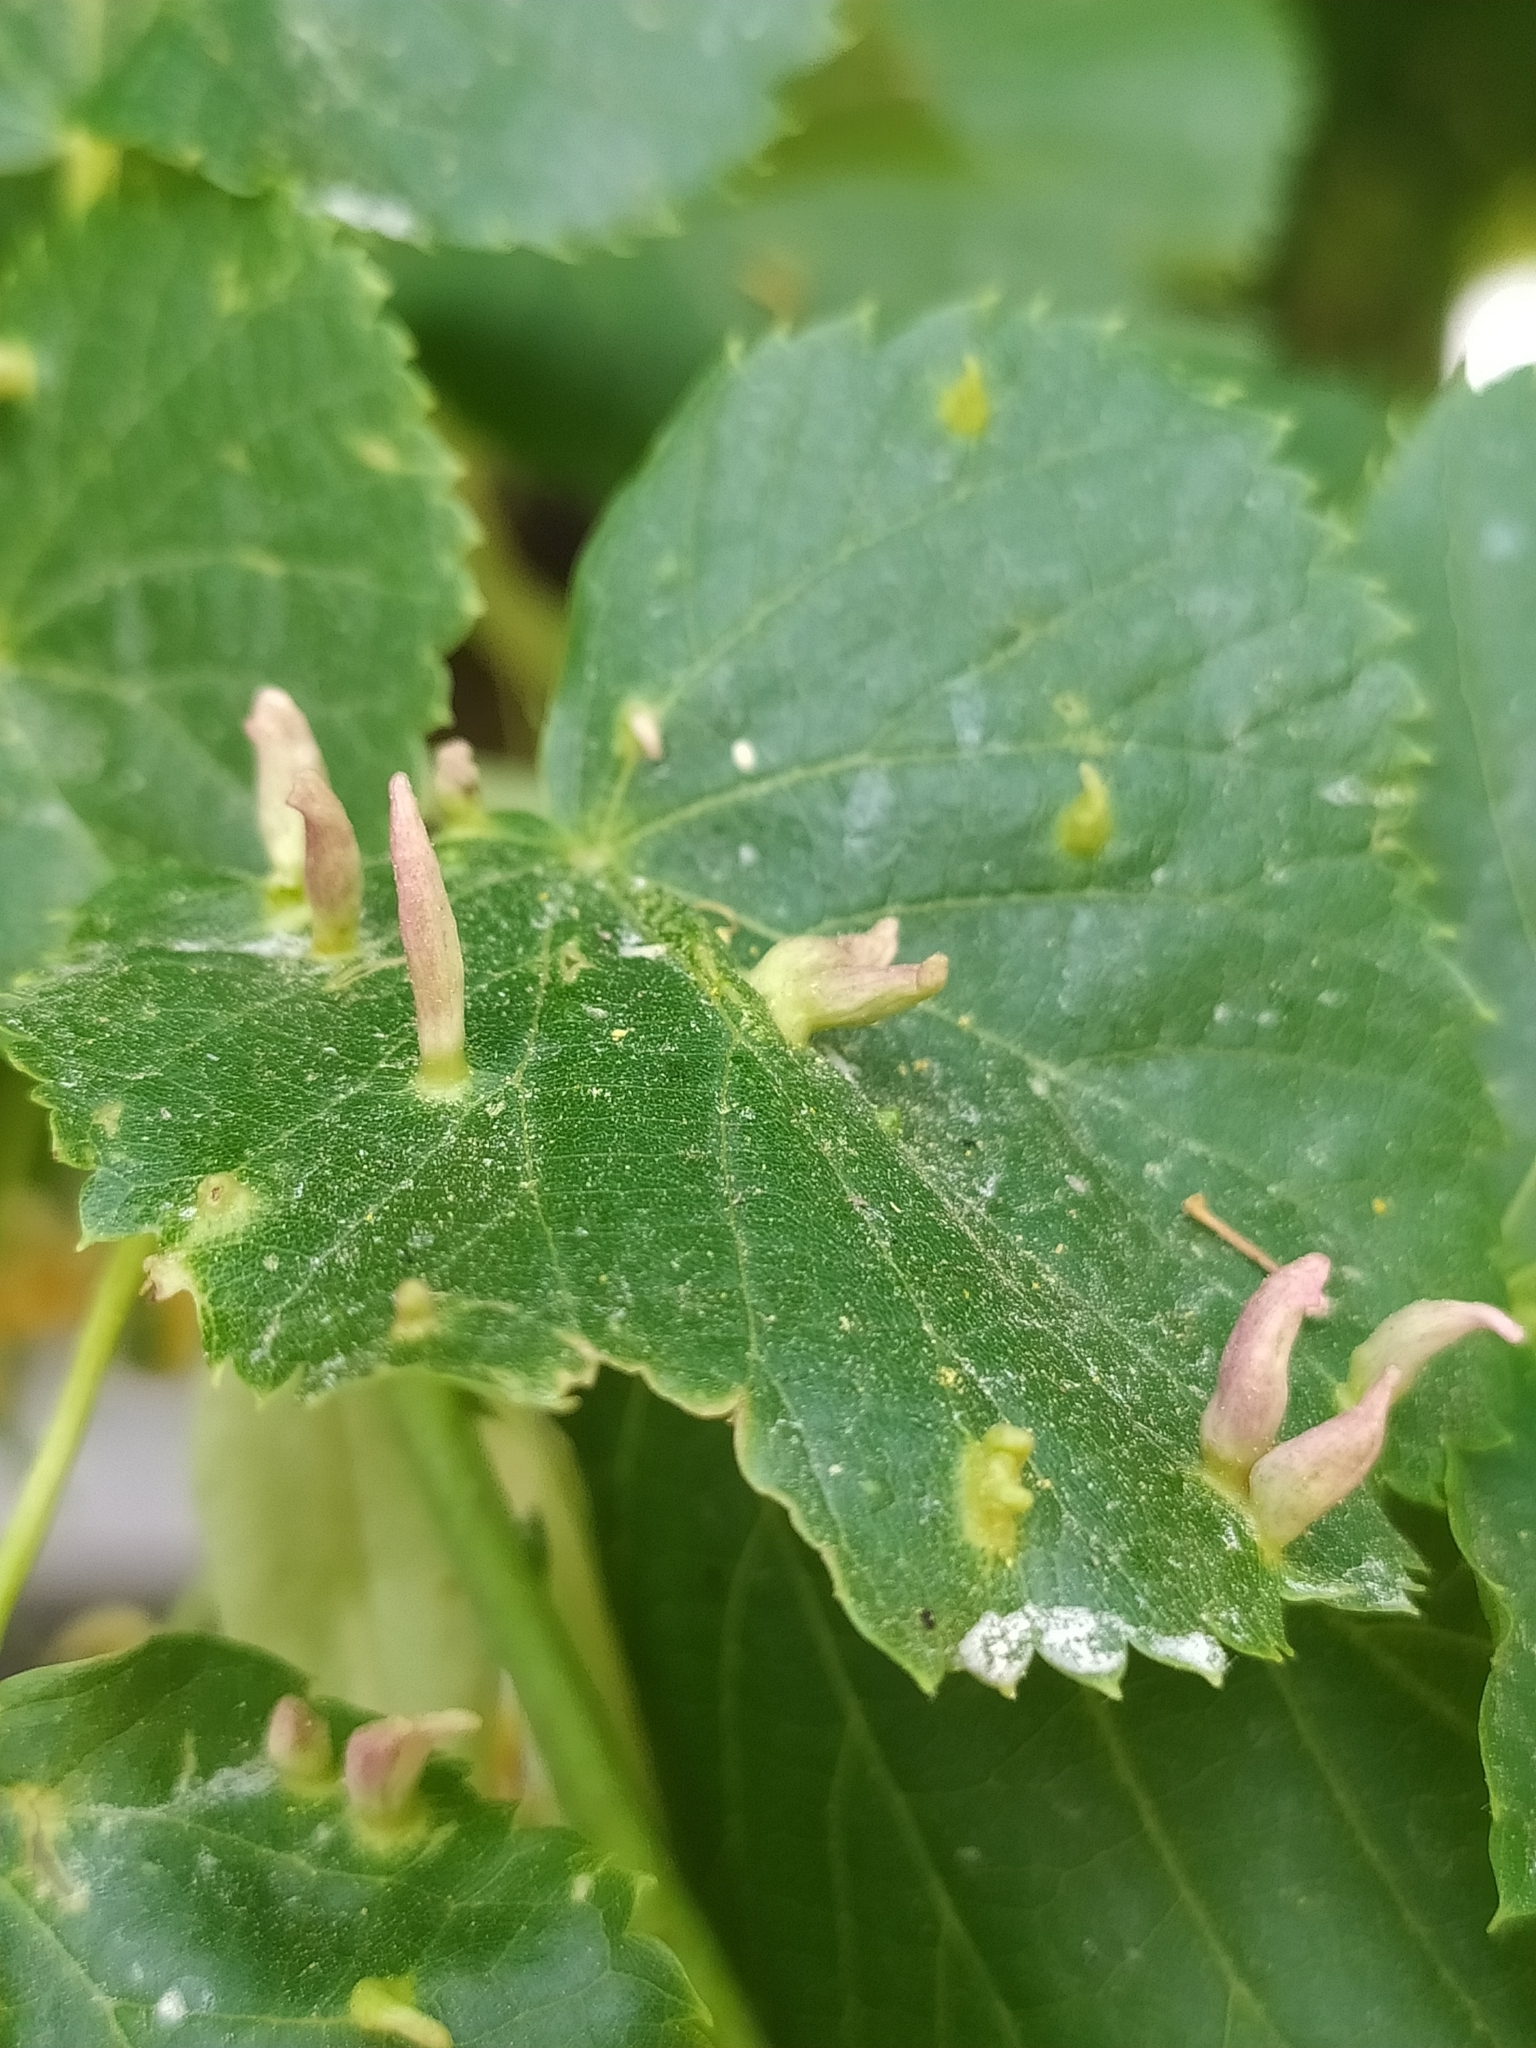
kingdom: Animalia
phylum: Arthropoda
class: Arachnida
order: Trombidiformes
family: Eriophyidae
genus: Eriophyes
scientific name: Eriophyes tiliae
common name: Red nail gall mite
